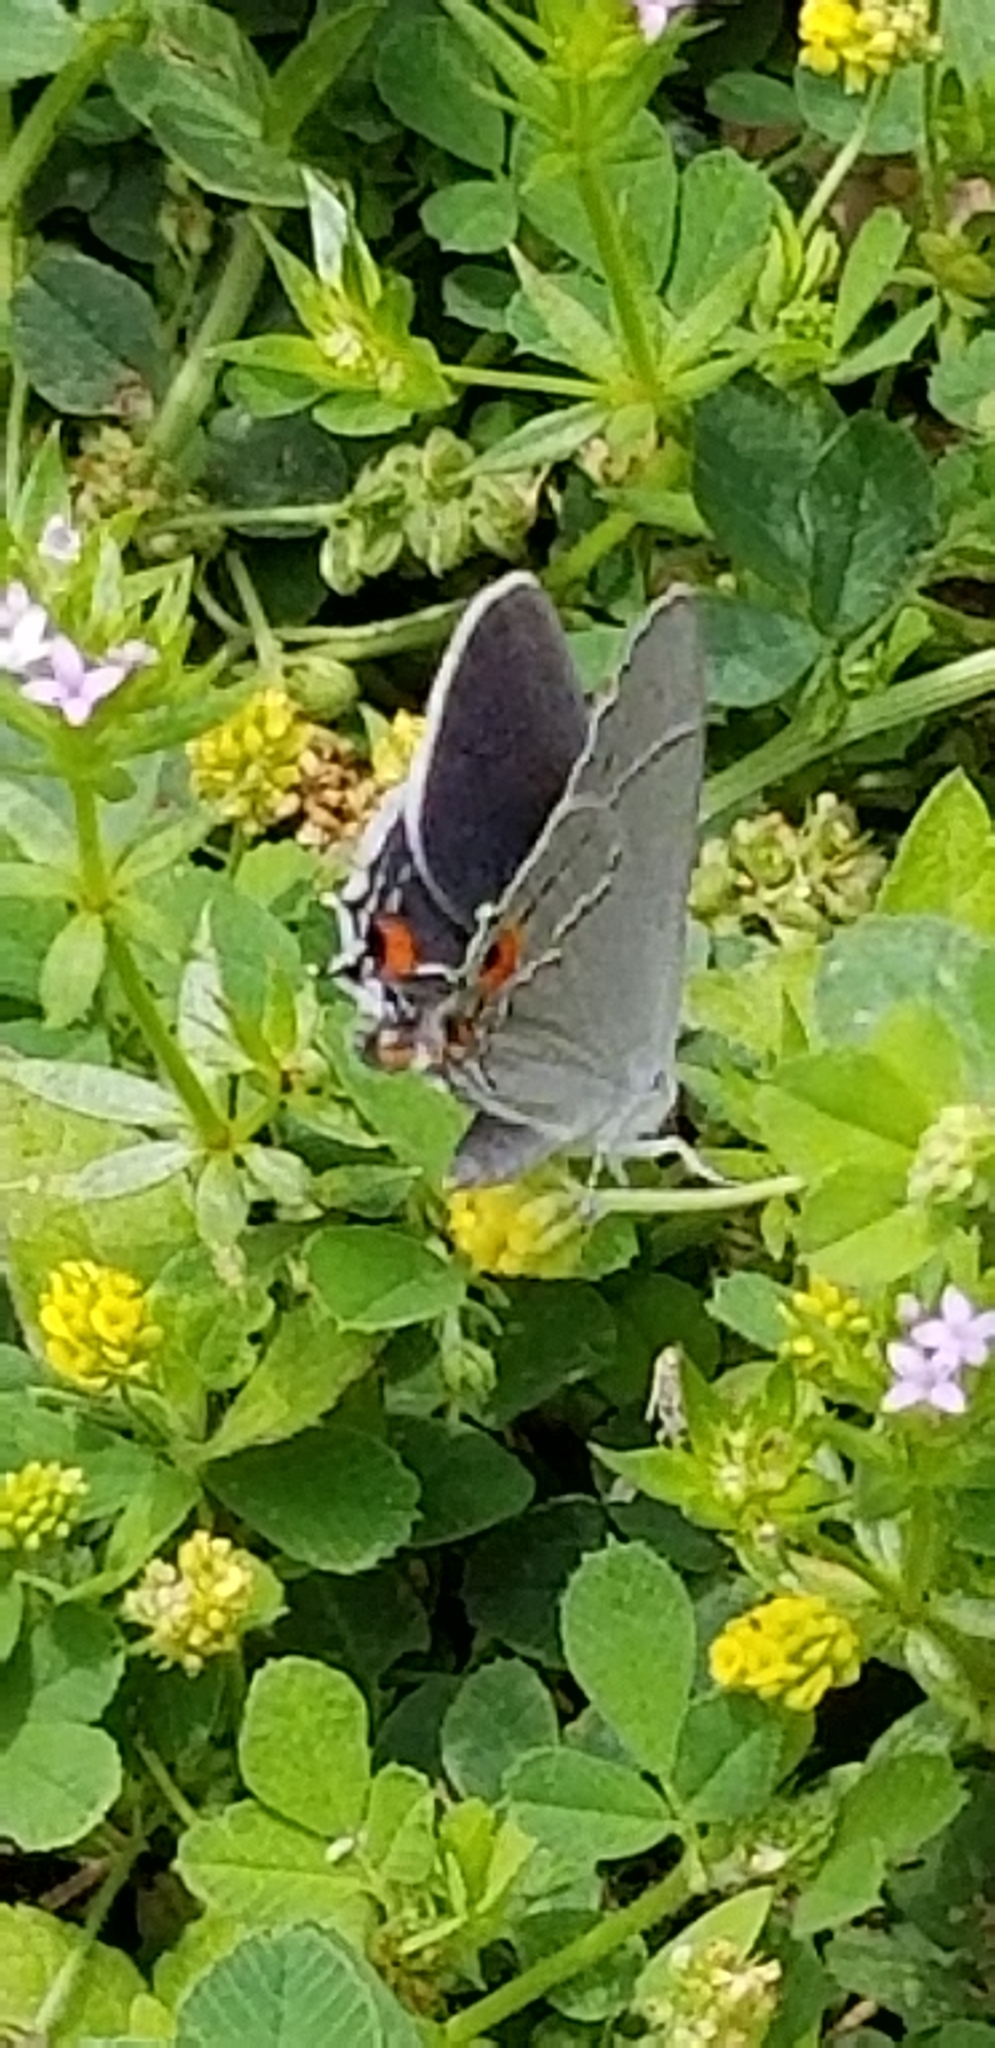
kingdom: Animalia
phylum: Arthropoda
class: Insecta
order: Lepidoptera
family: Lycaenidae
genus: Strymon
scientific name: Strymon melinus
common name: Gray hairstreak
